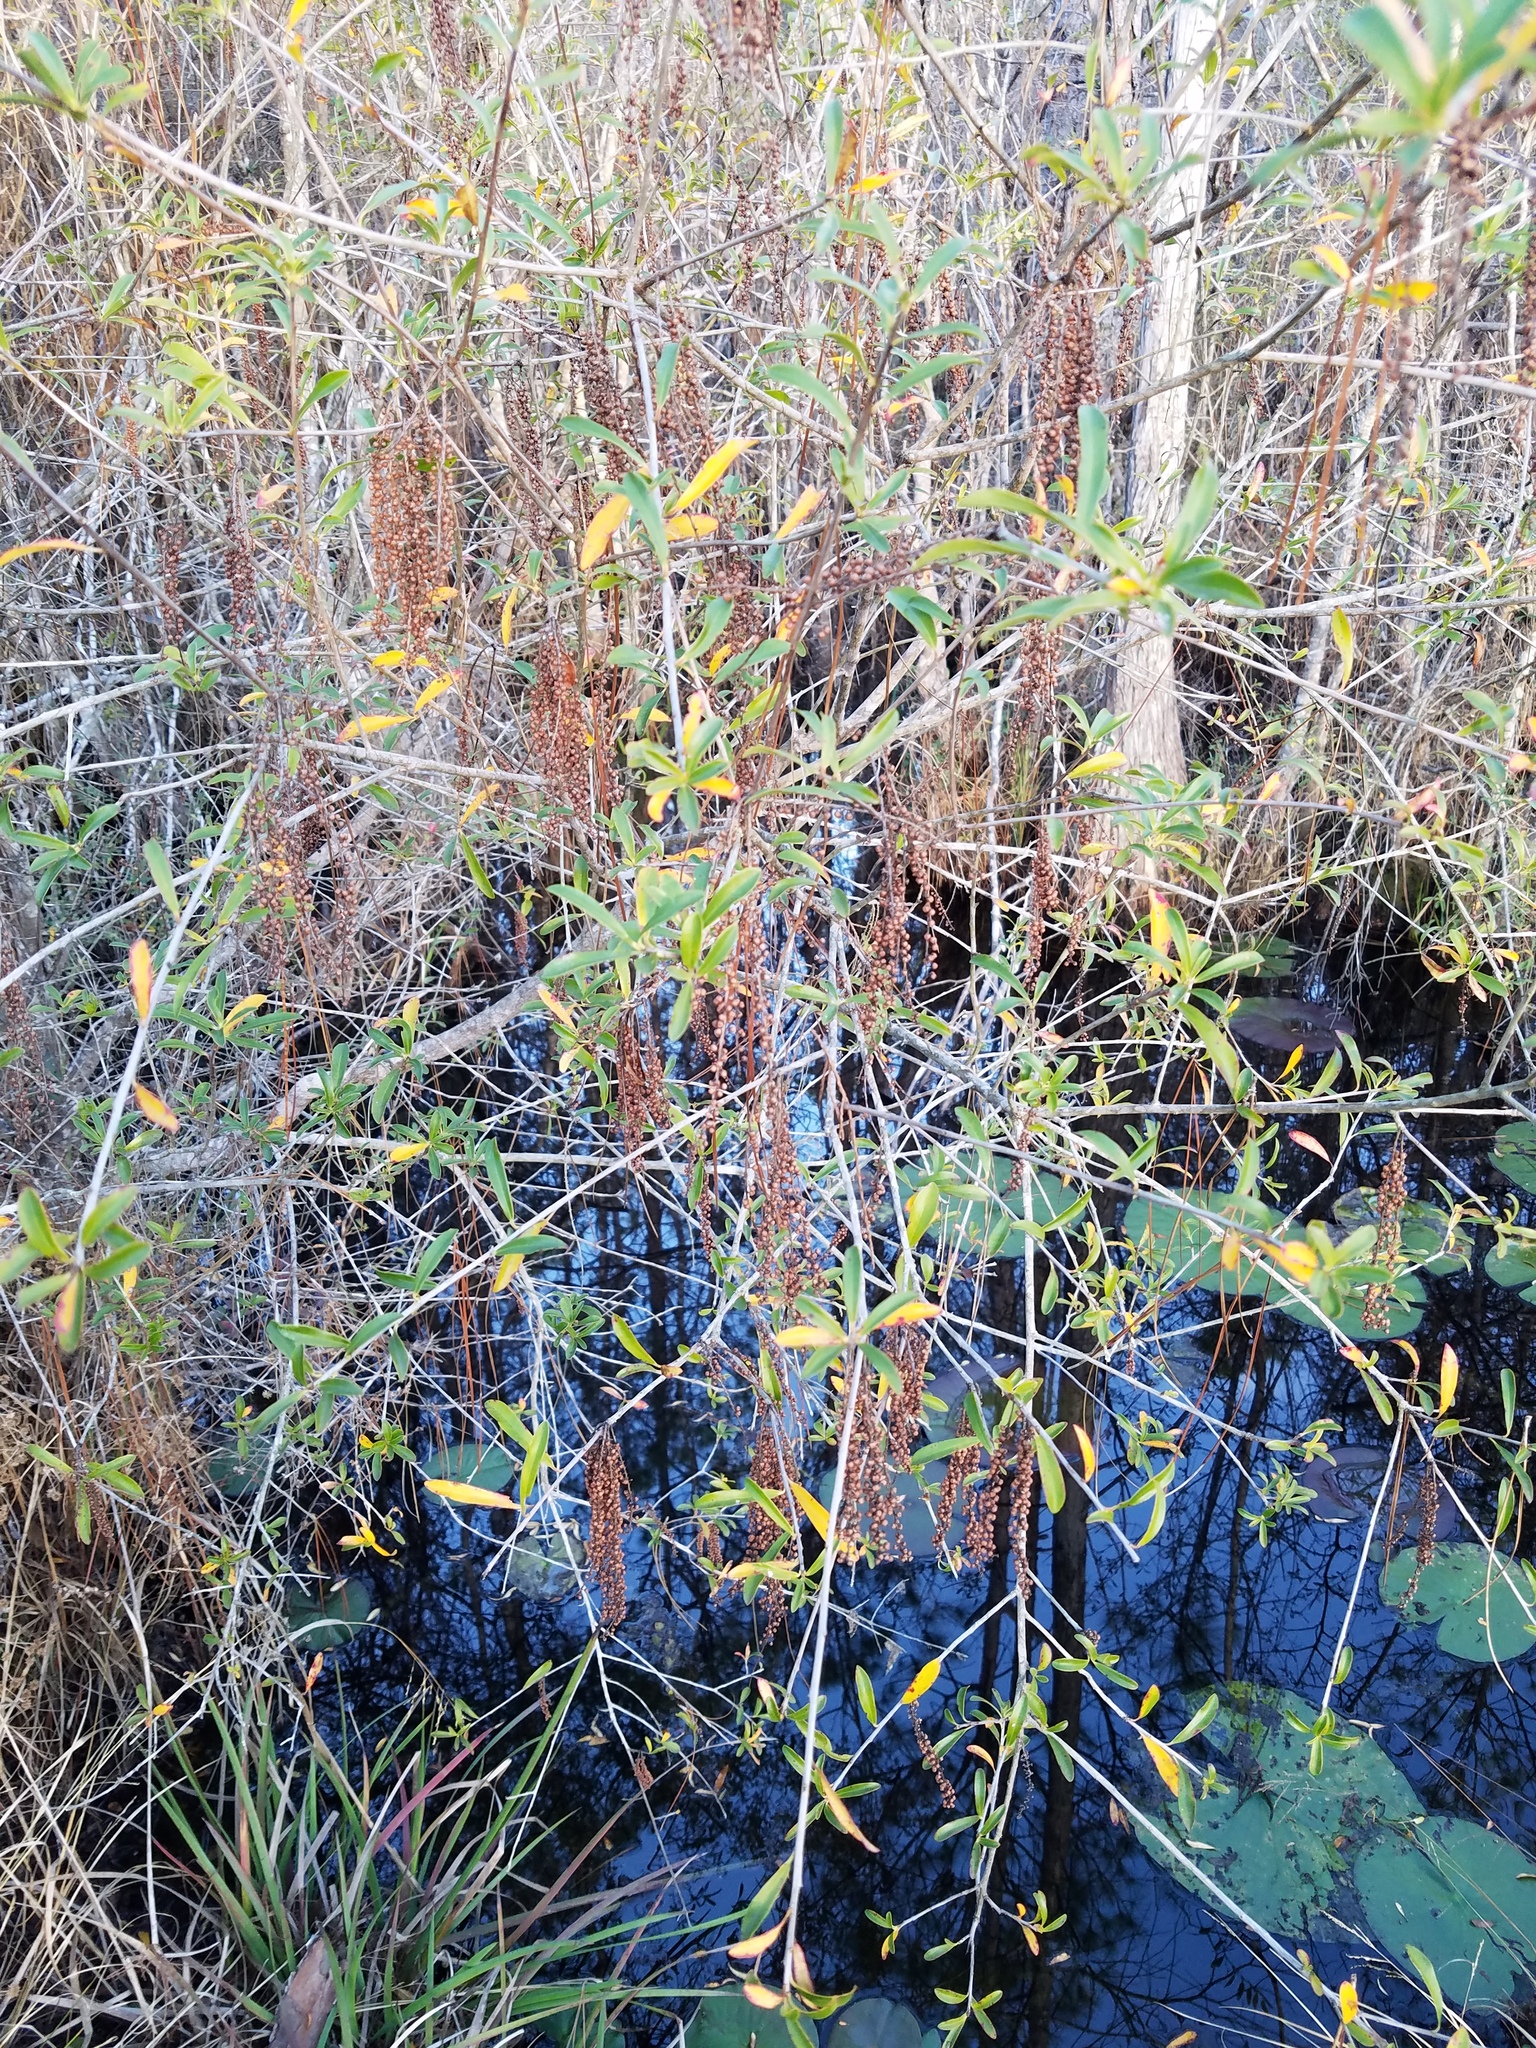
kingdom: Plantae
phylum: Tracheophyta
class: Magnoliopsida
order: Ericales
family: Cyrillaceae
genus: Cyrilla
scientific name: Cyrilla racemiflora
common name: Black titi
